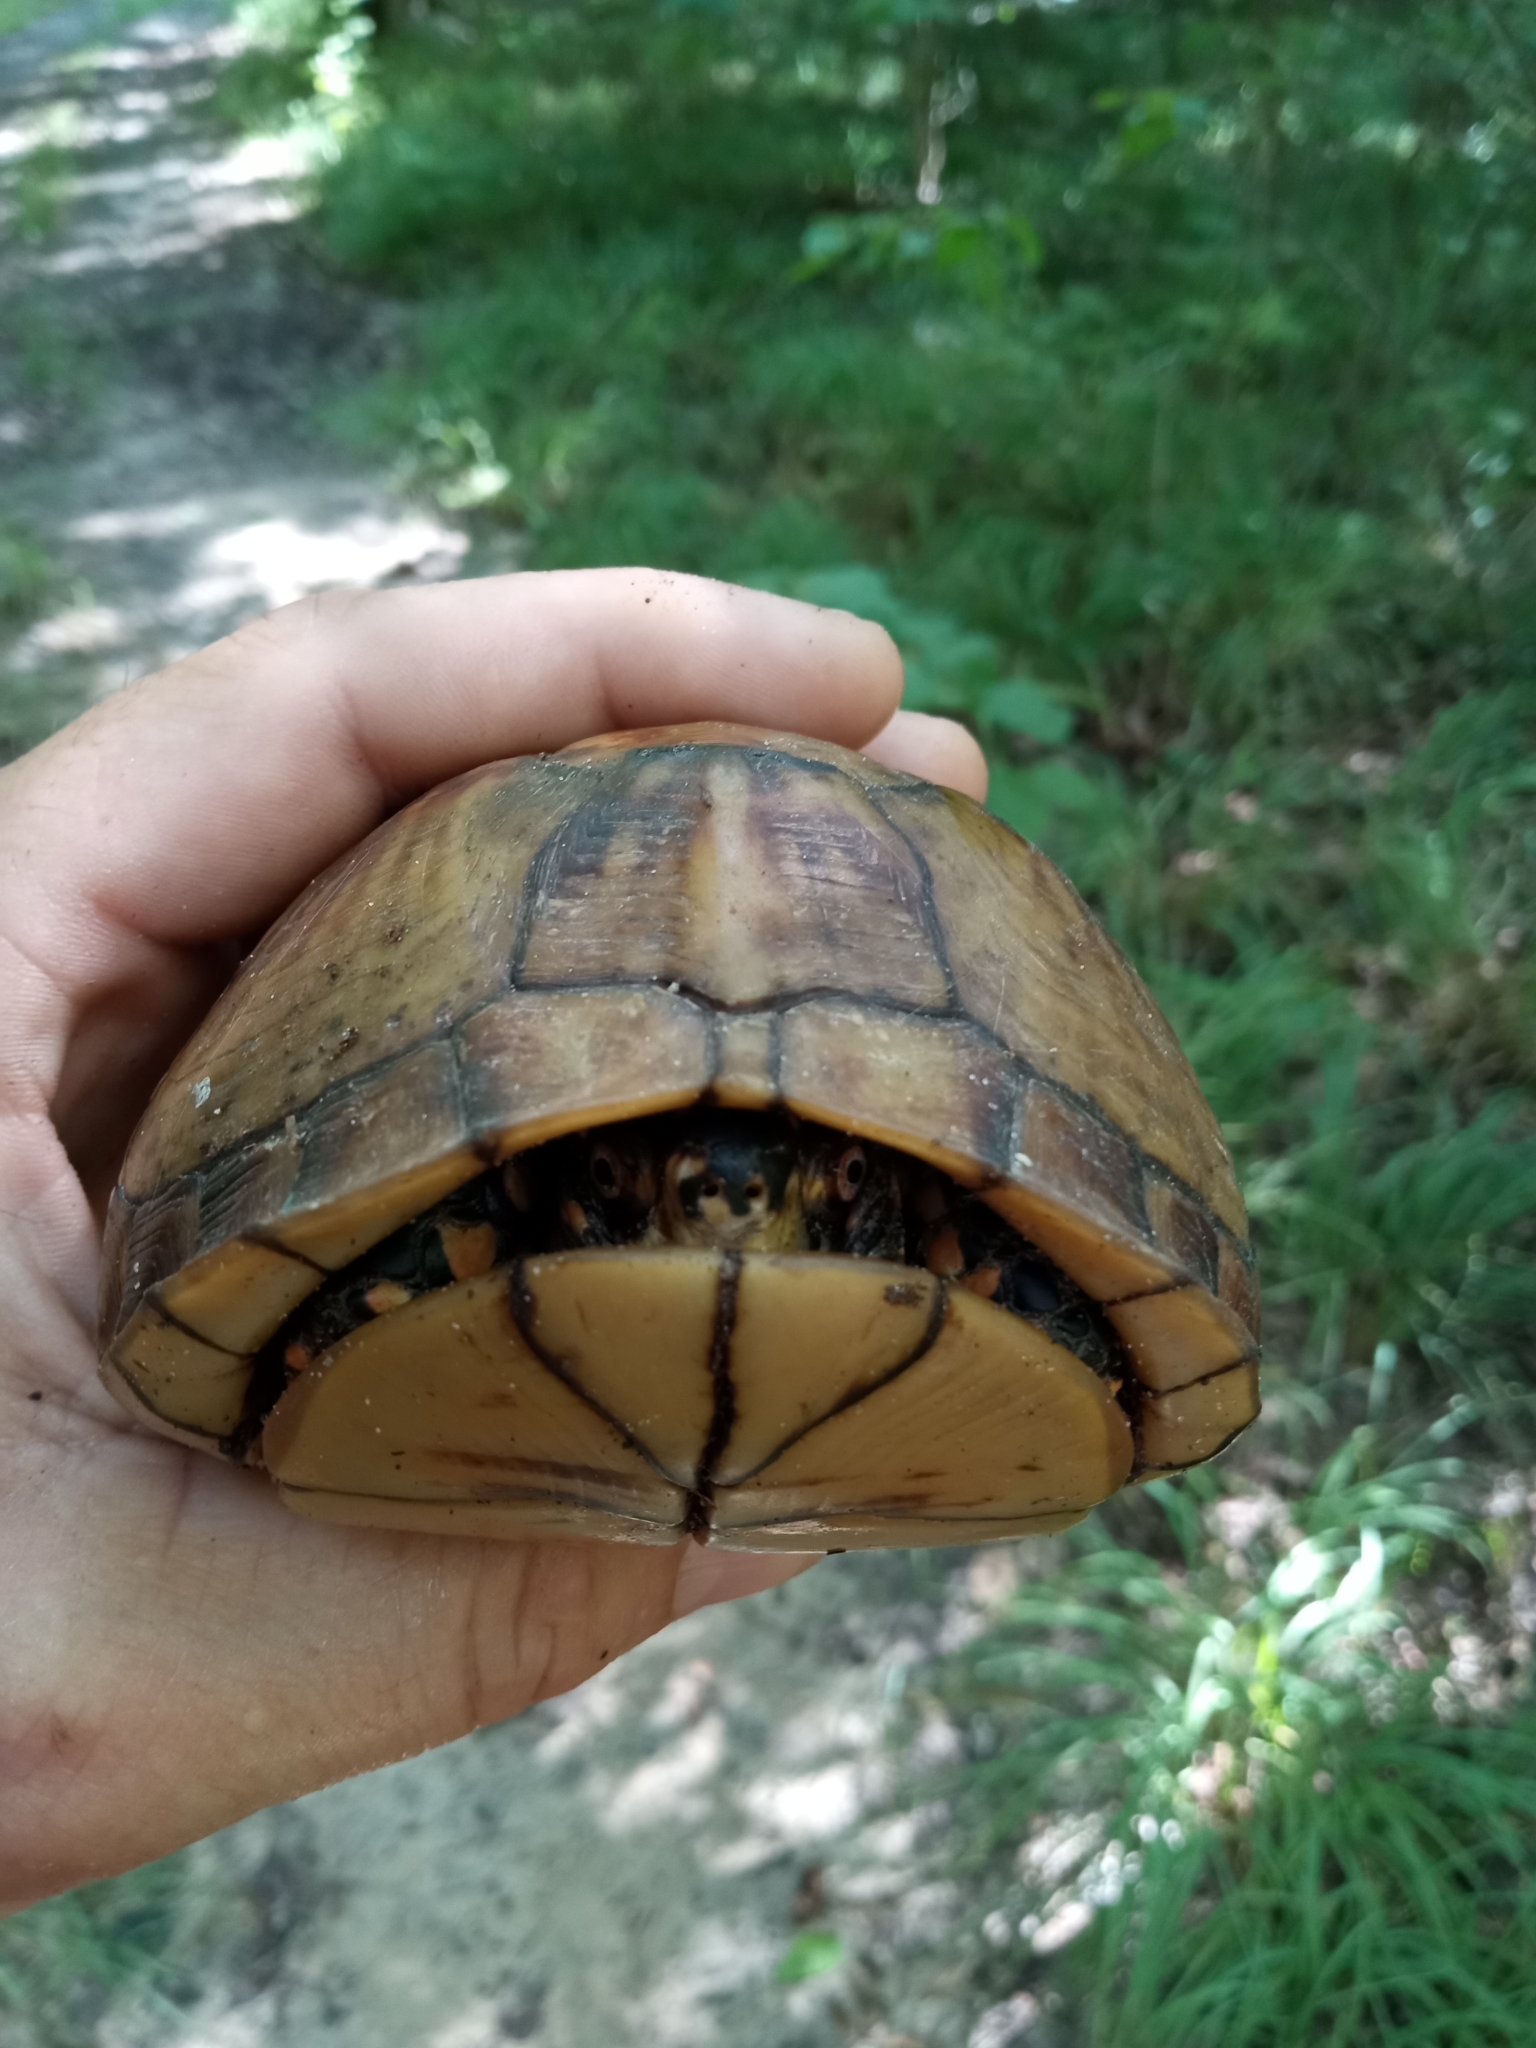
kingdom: Animalia
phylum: Chordata
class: Testudines
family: Emydidae
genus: Terrapene
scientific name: Terrapene carolina
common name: Common box turtle
